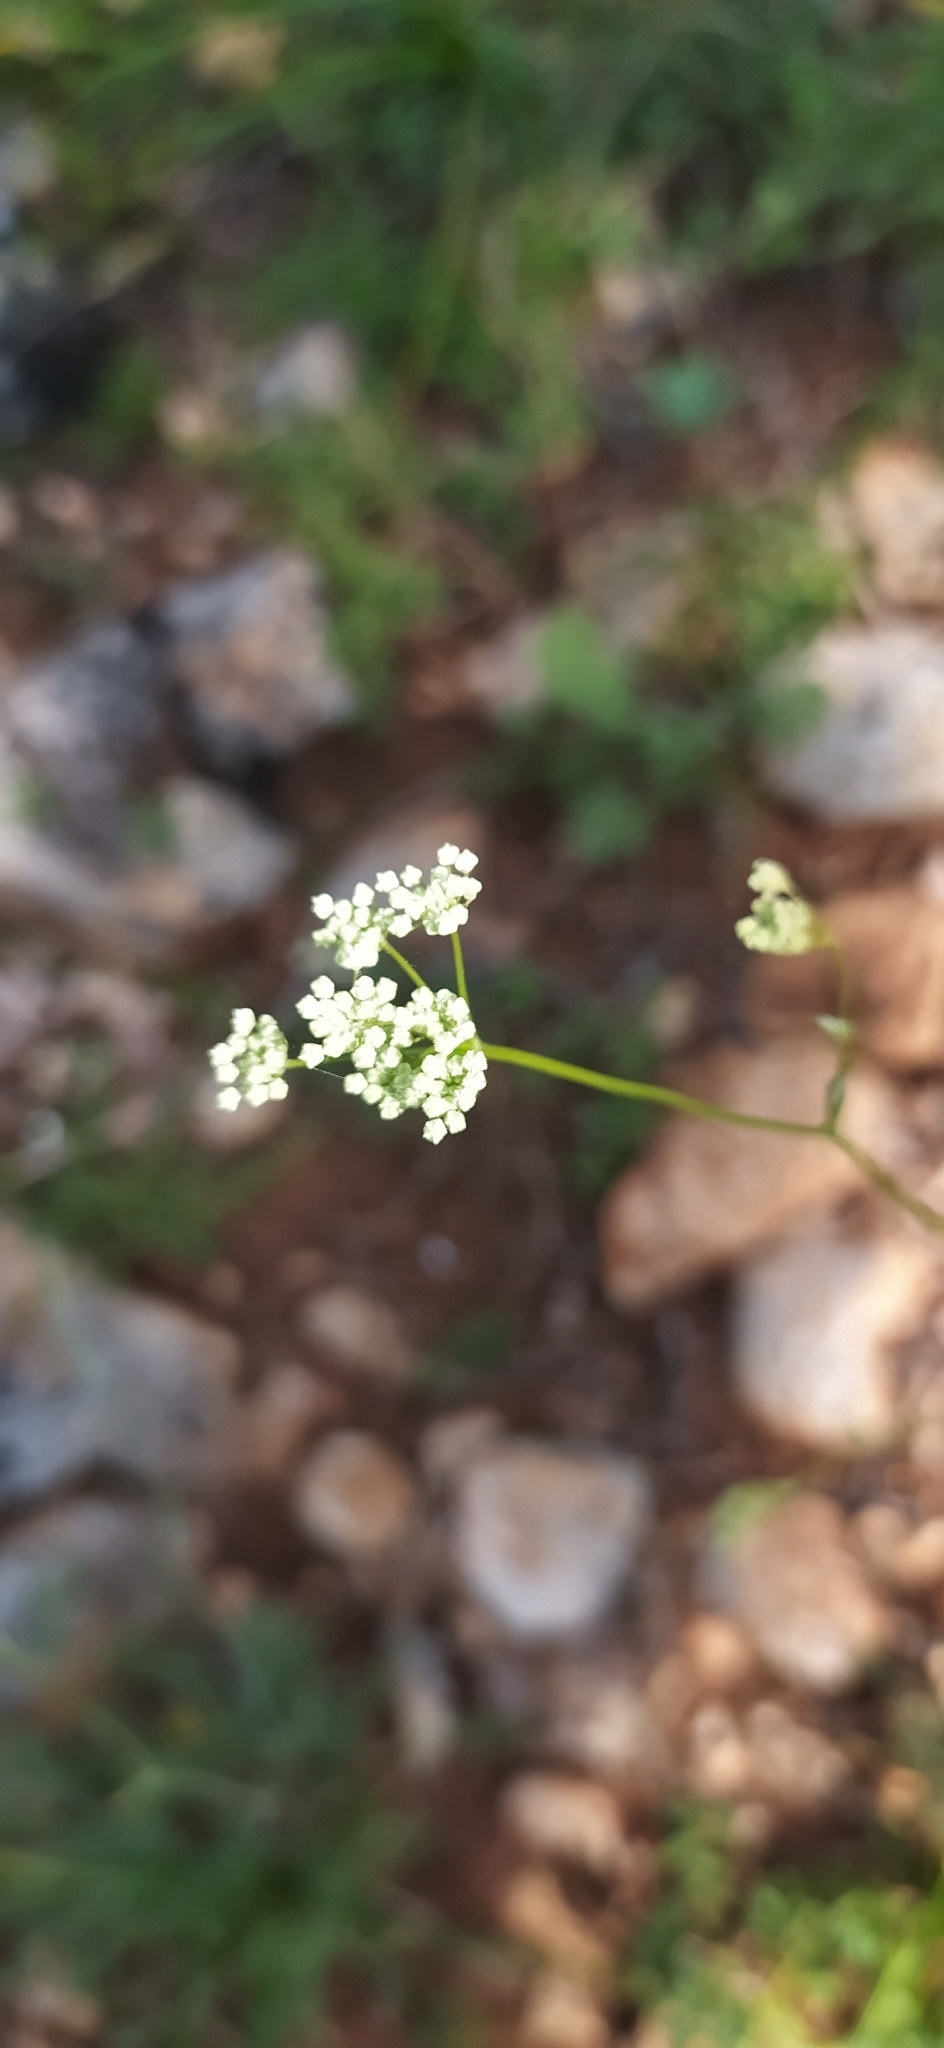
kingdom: Plantae
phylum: Tracheophyta
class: Magnoliopsida
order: Apiales
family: Apiaceae
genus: Pimpinella
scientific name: Pimpinella saxifraga
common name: Burnet-saxifrage
